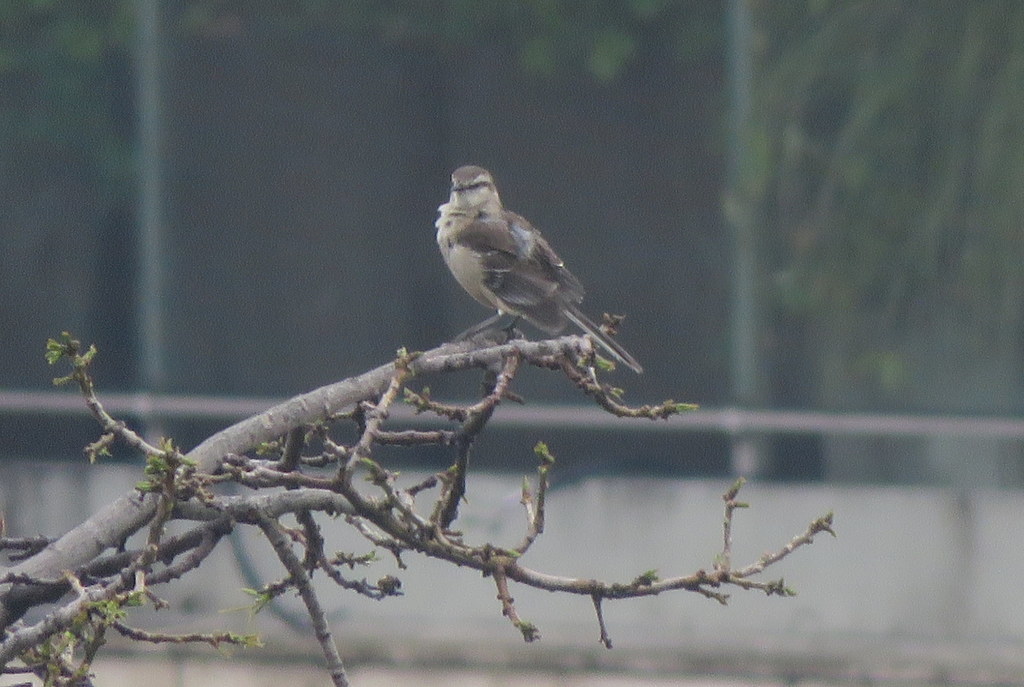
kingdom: Animalia
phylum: Chordata
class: Aves
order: Passeriformes
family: Mimidae
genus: Mimus
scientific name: Mimus saturninus
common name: Chalk-browed mockingbird
